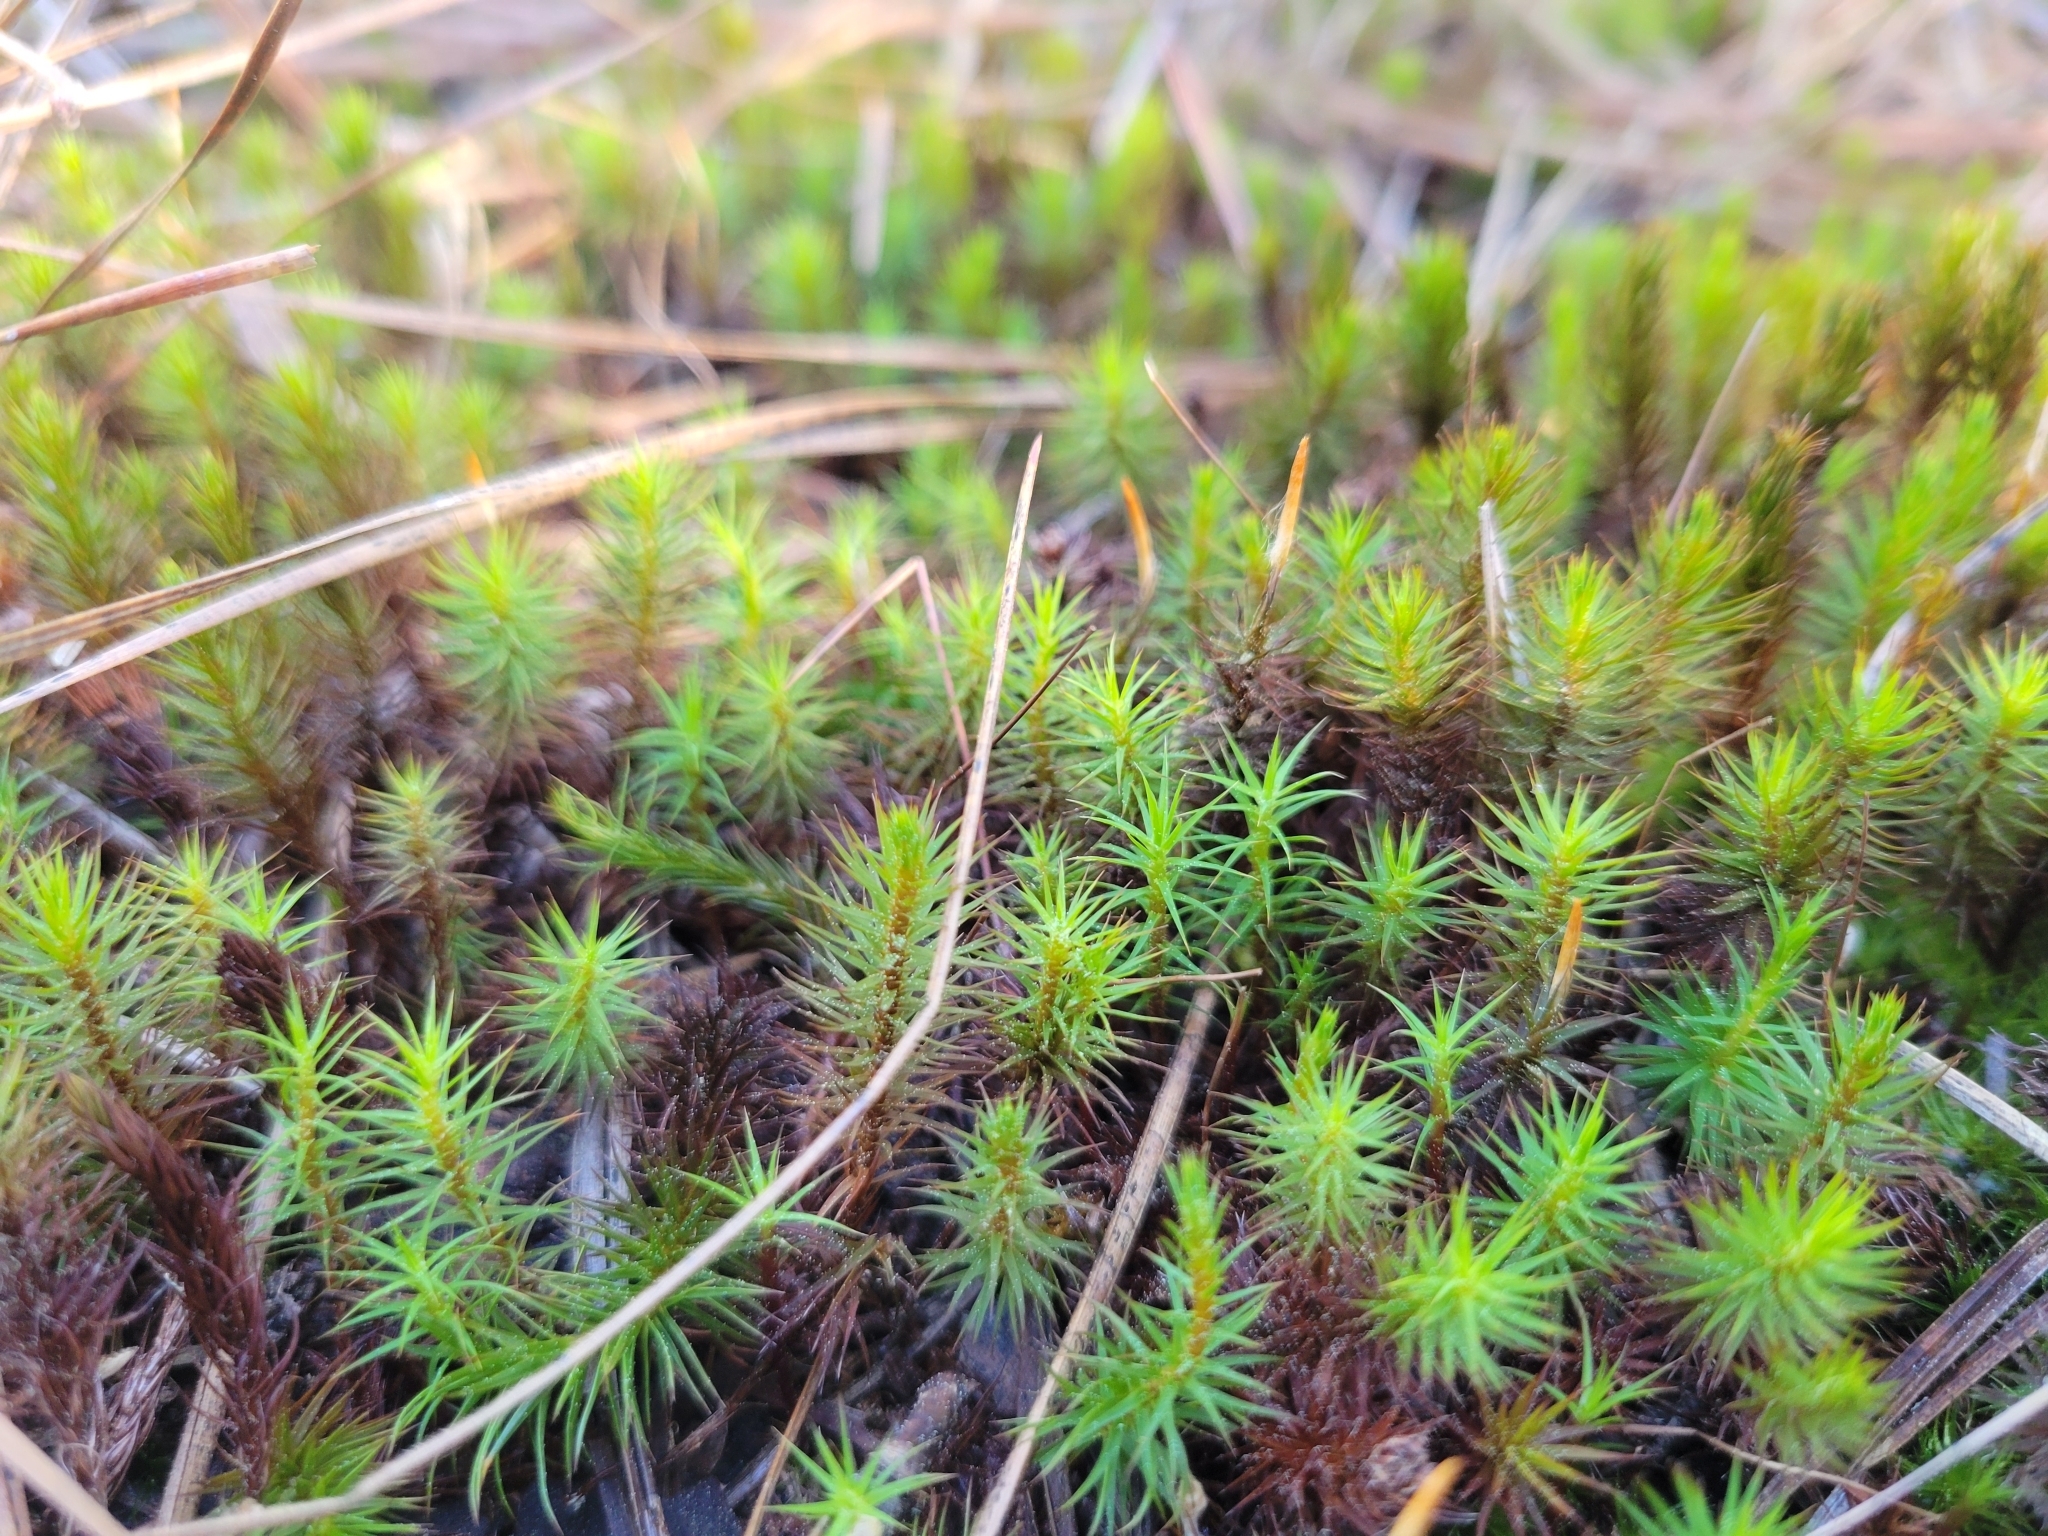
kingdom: Plantae
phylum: Bryophyta
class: Polytrichopsida
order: Polytrichales
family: Polytrichaceae
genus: Polytrichum
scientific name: Polytrichum commune
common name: Common haircap
